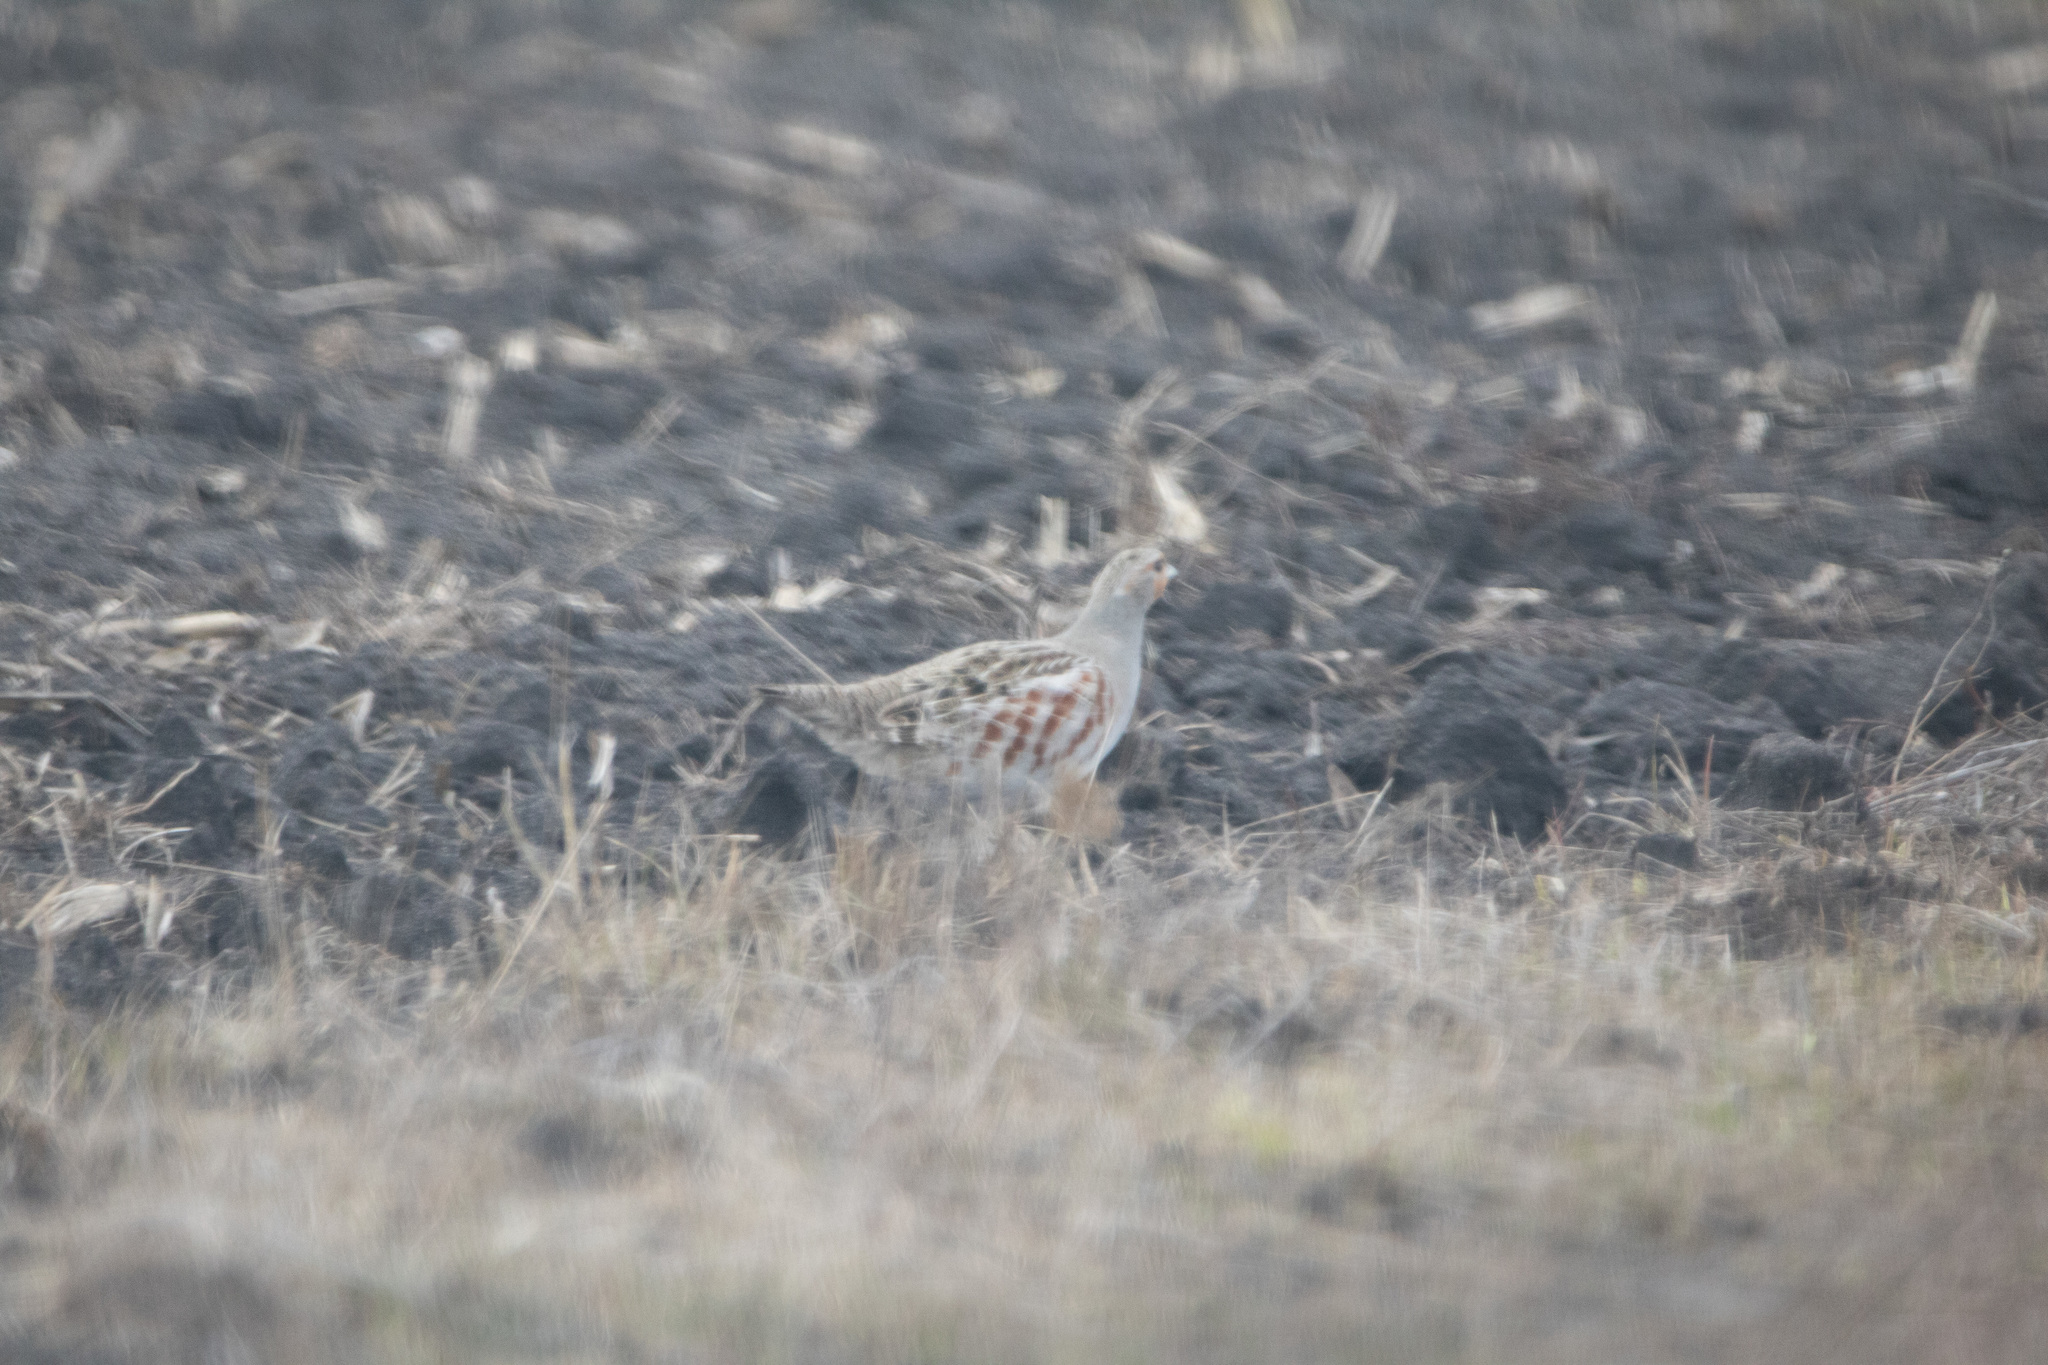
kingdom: Animalia
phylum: Chordata
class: Aves
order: Galliformes
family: Phasianidae
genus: Perdix
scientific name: Perdix perdix
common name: Grey partridge
